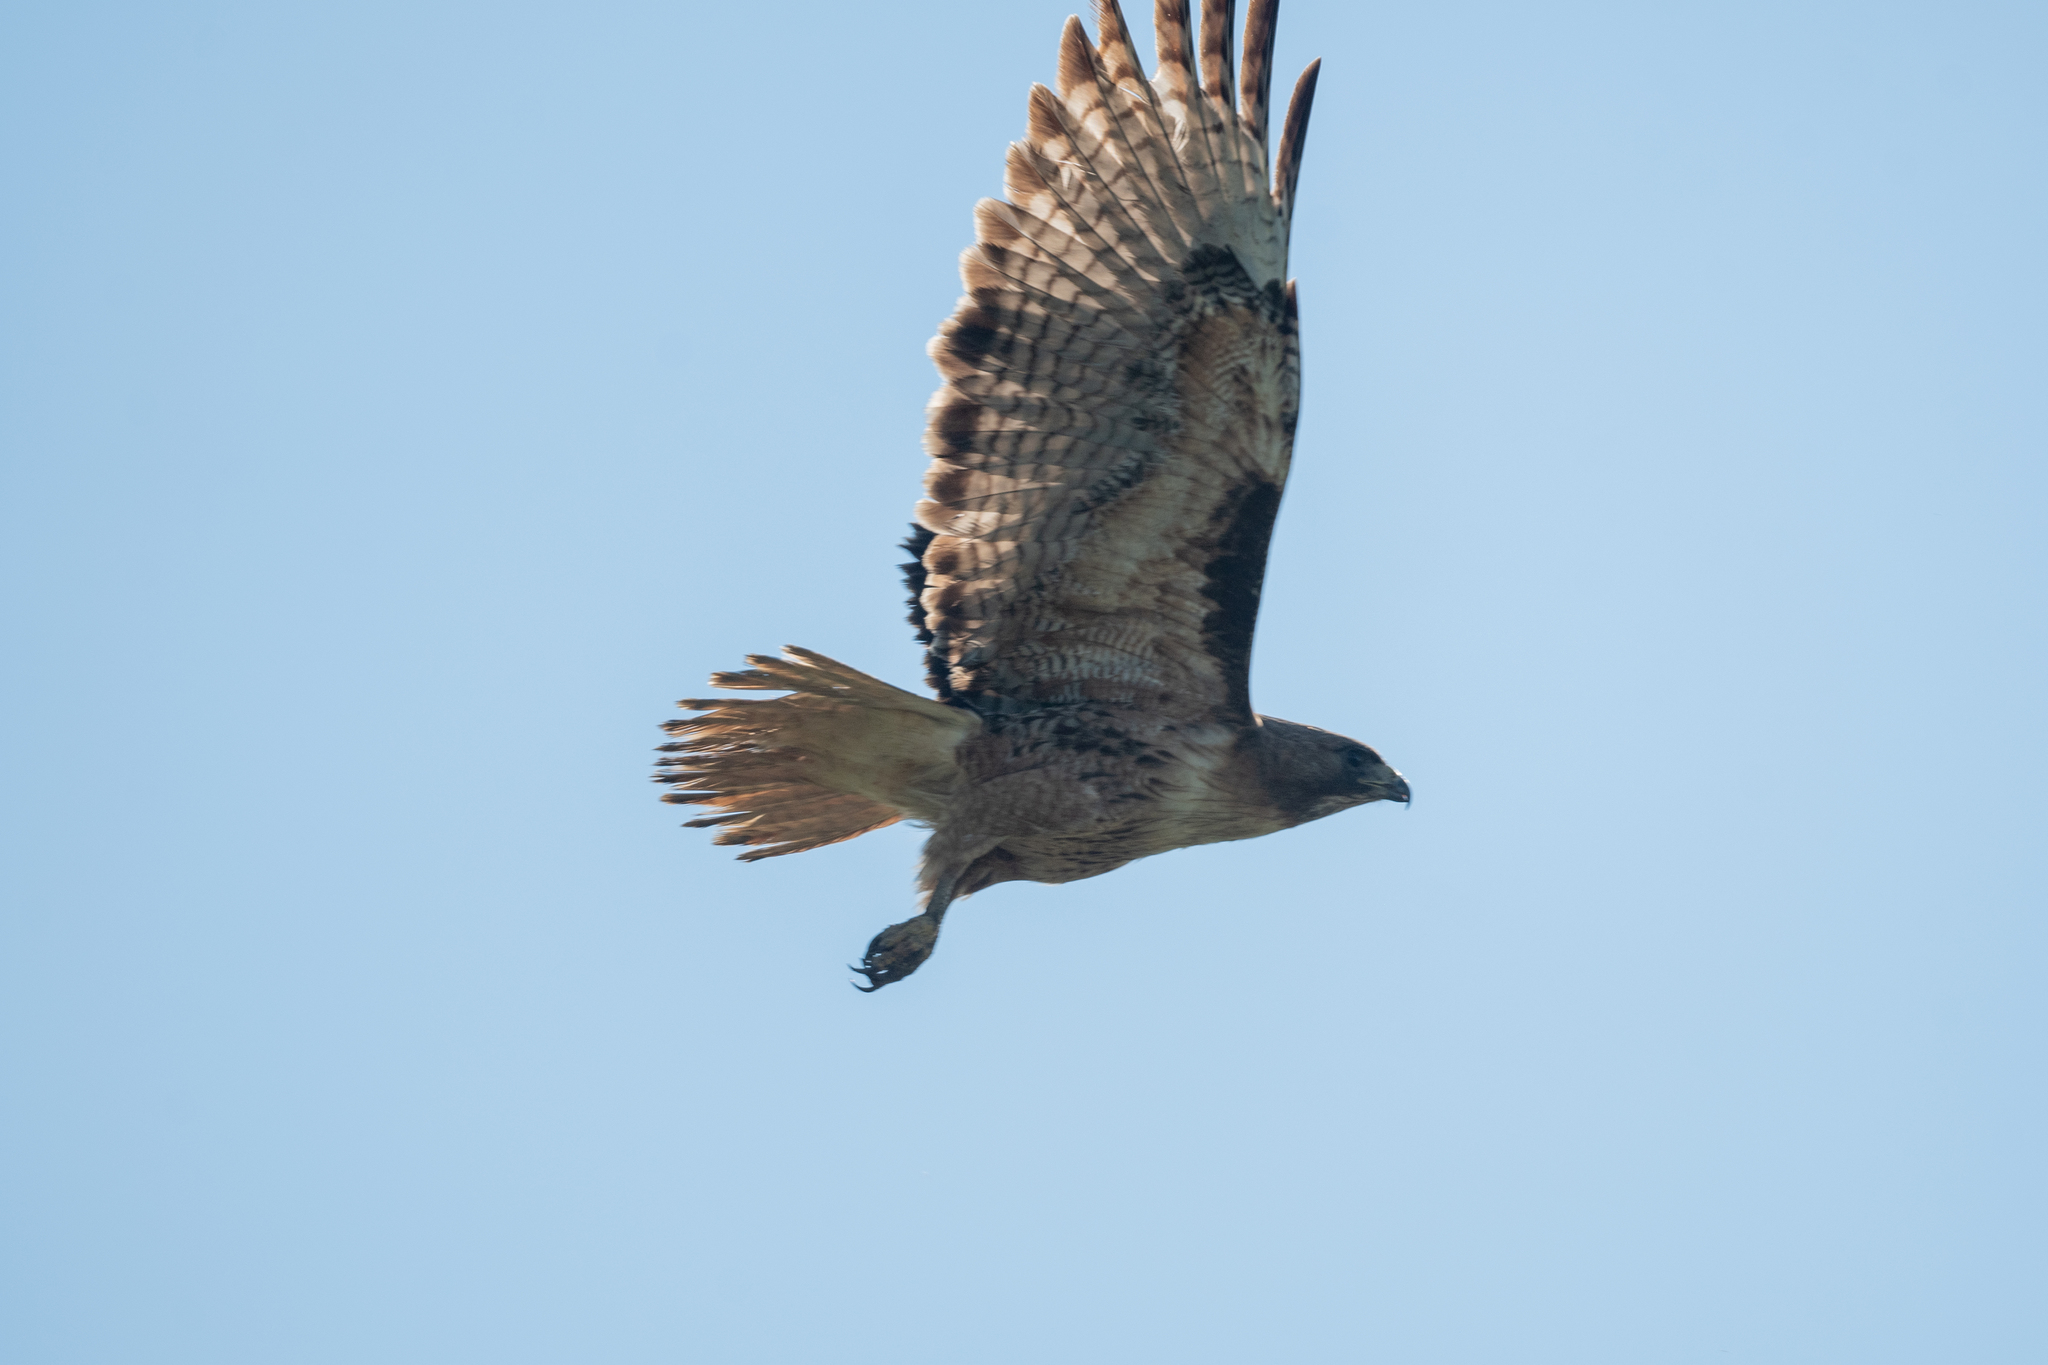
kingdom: Animalia
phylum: Chordata
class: Aves
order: Accipitriformes
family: Accipitridae
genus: Buteo
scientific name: Buteo jamaicensis
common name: Red-tailed hawk
